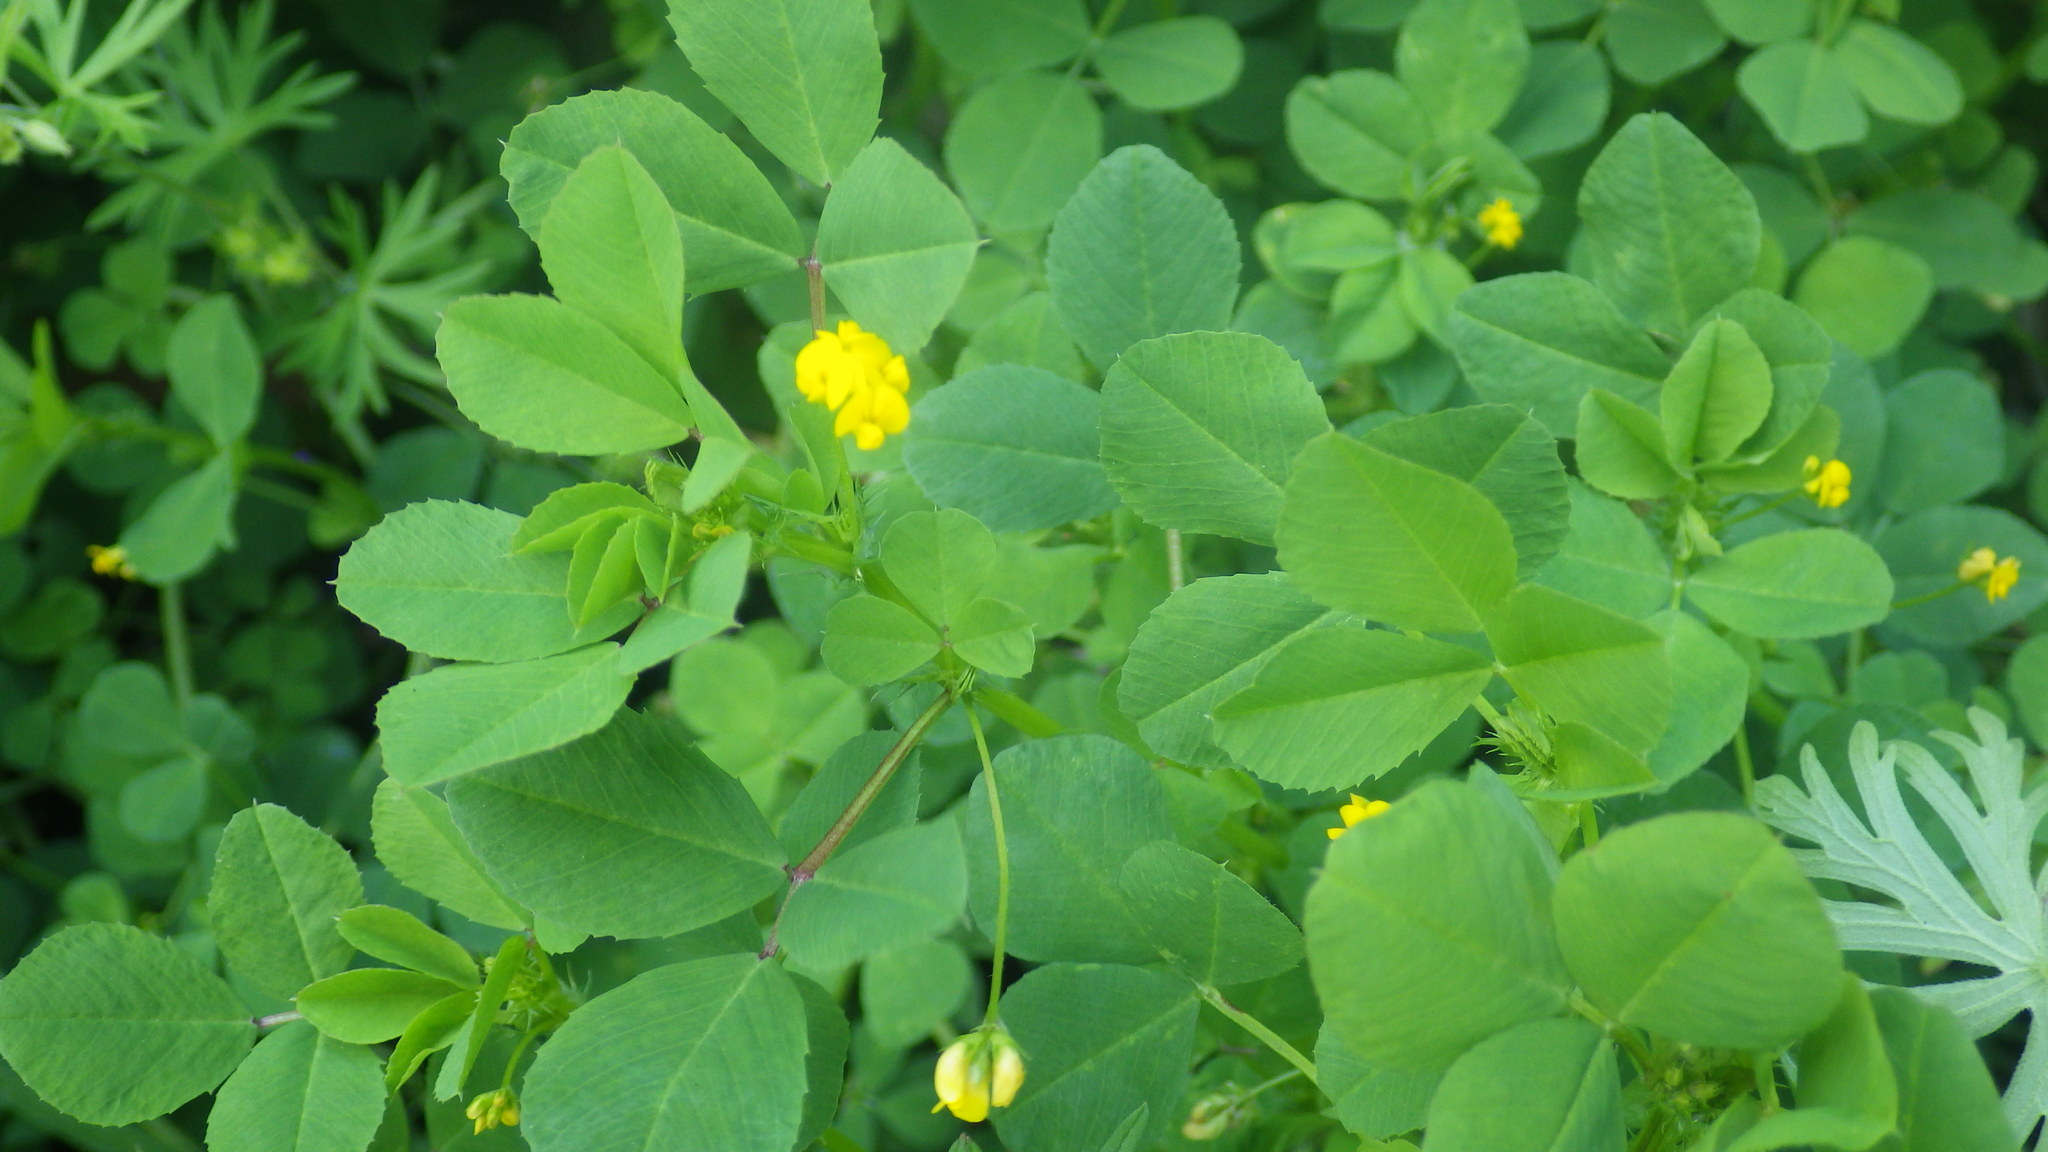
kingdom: Plantae
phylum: Tracheophyta
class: Magnoliopsida
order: Fabales
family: Fabaceae
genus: Medicago
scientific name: Medicago polymorpha
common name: Burclover
